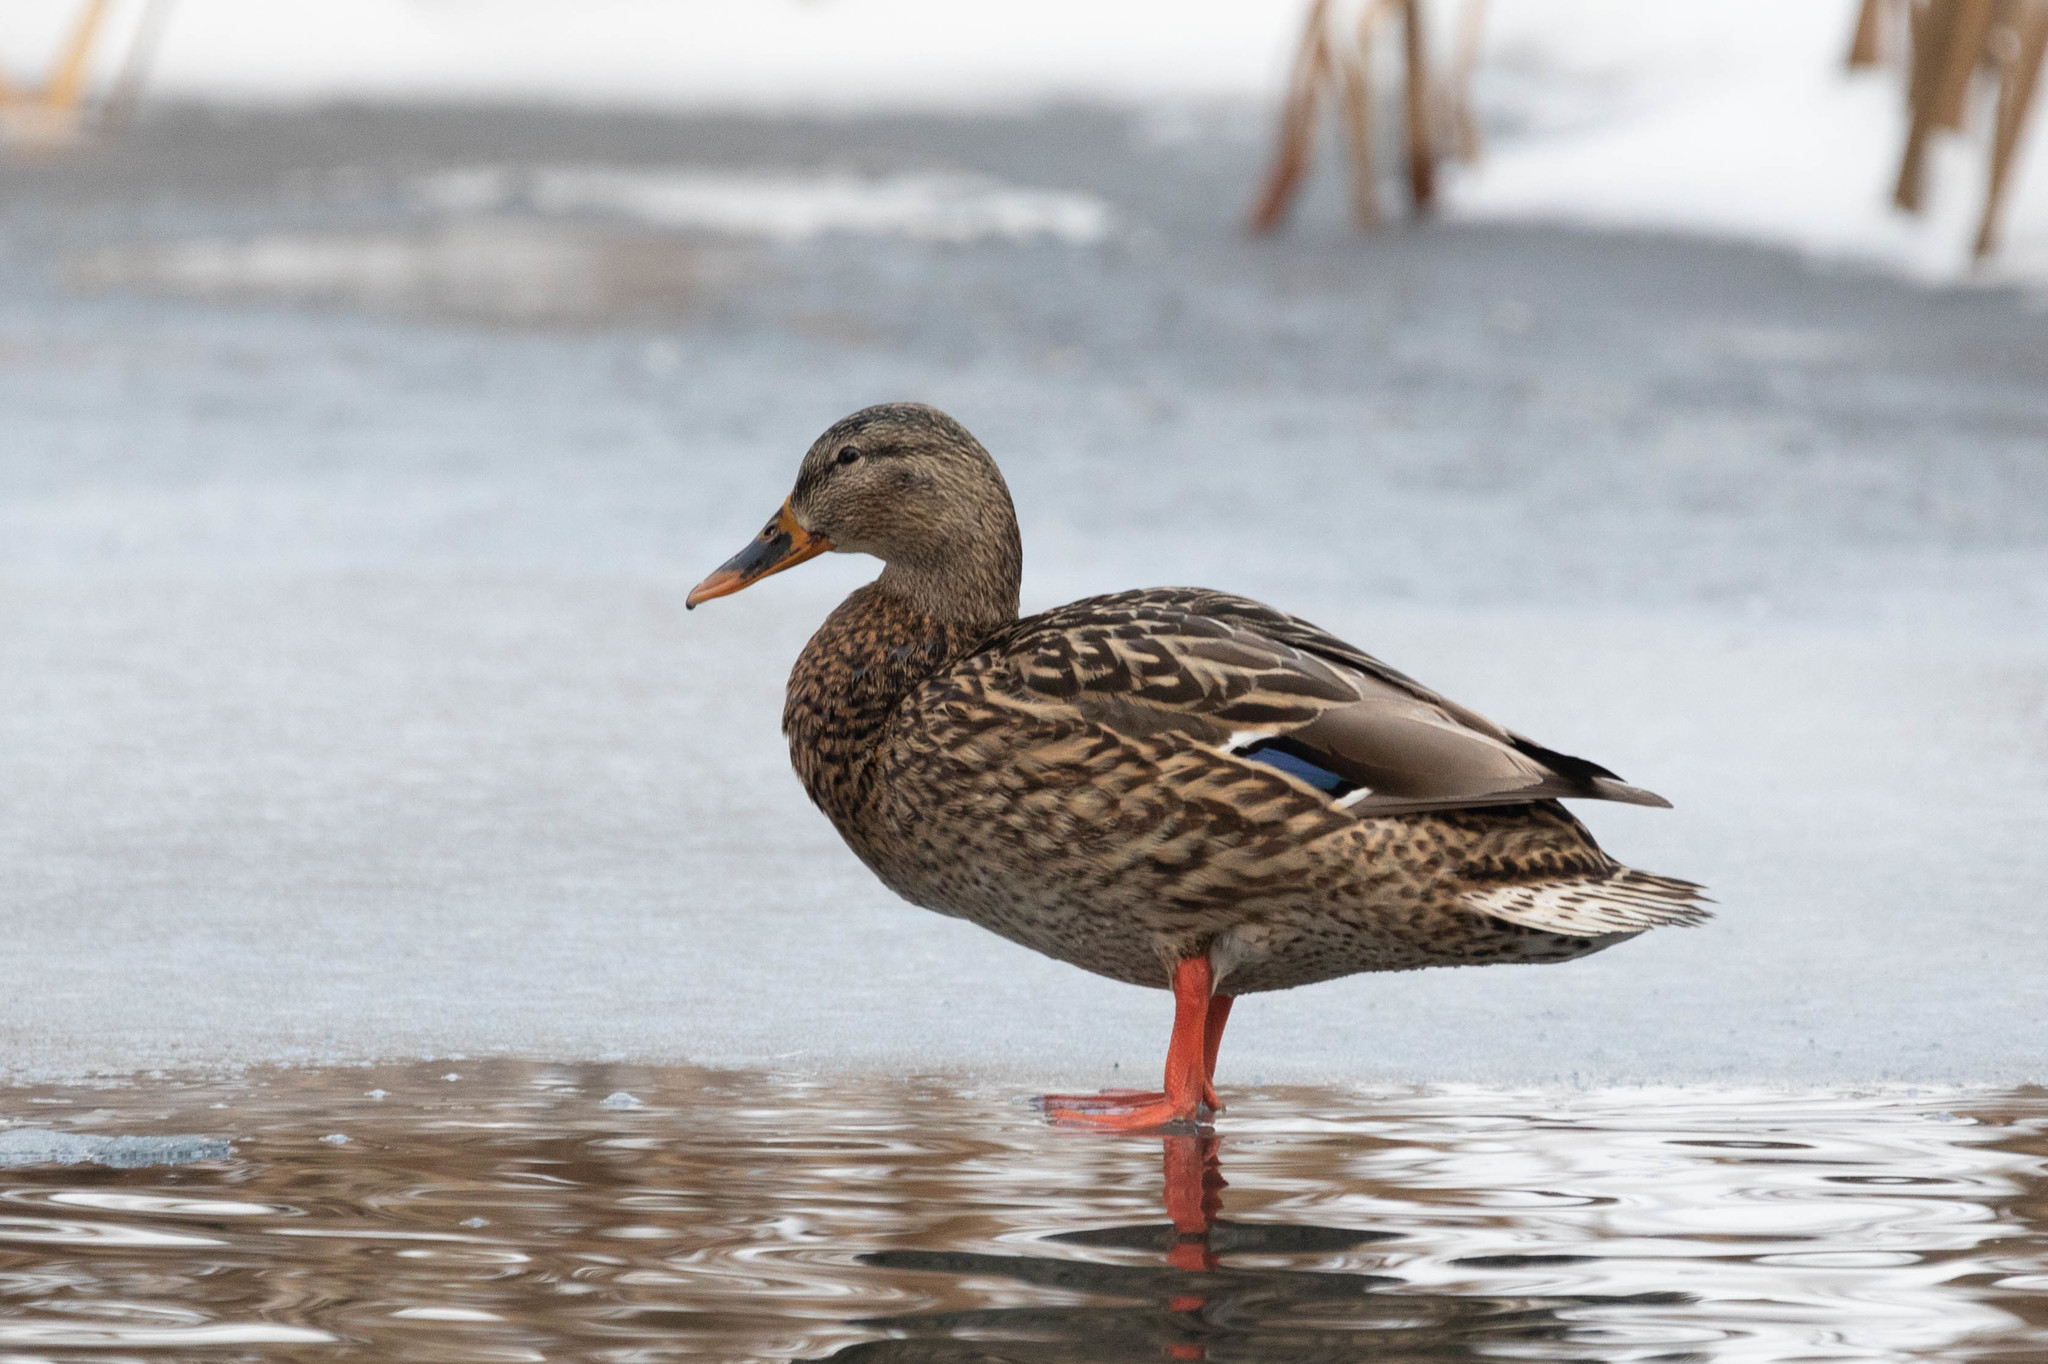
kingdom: Animalia
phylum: Chordata
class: Aves
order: Anseriformes
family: Anatidae
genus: Anas
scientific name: Anas platyrhynchos
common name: Mallard
